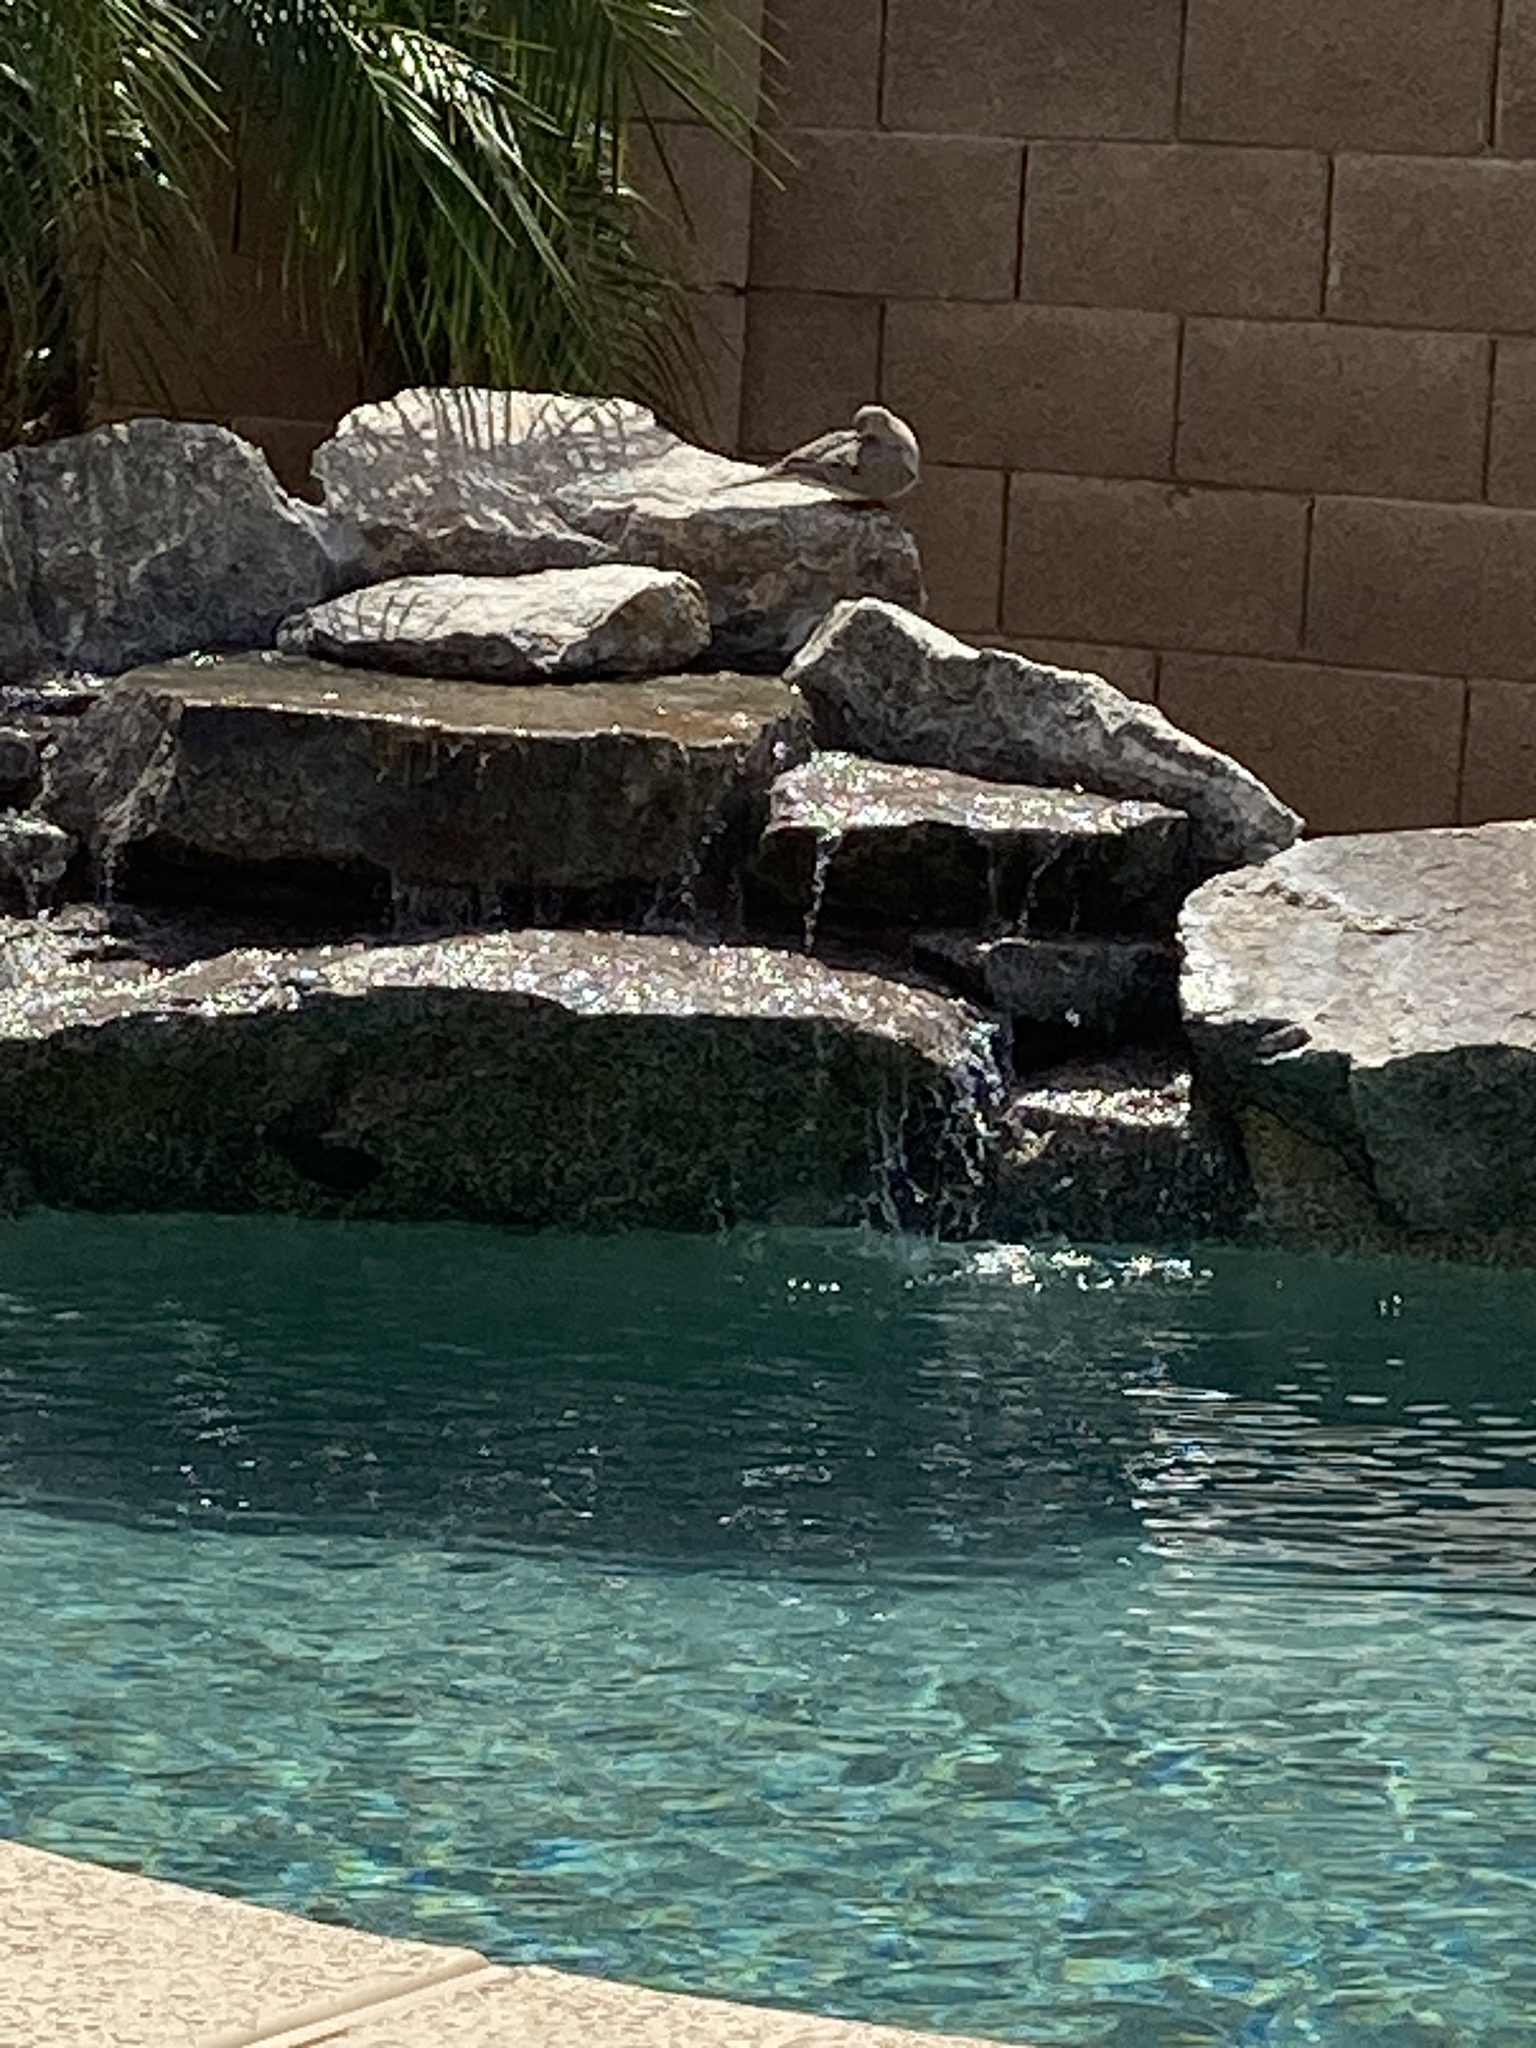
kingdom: Animalia
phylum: Chordata
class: Aves
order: Columbiformes
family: Columbidae
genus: Zenaida
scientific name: Zenaida macroura
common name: Mourning dove
